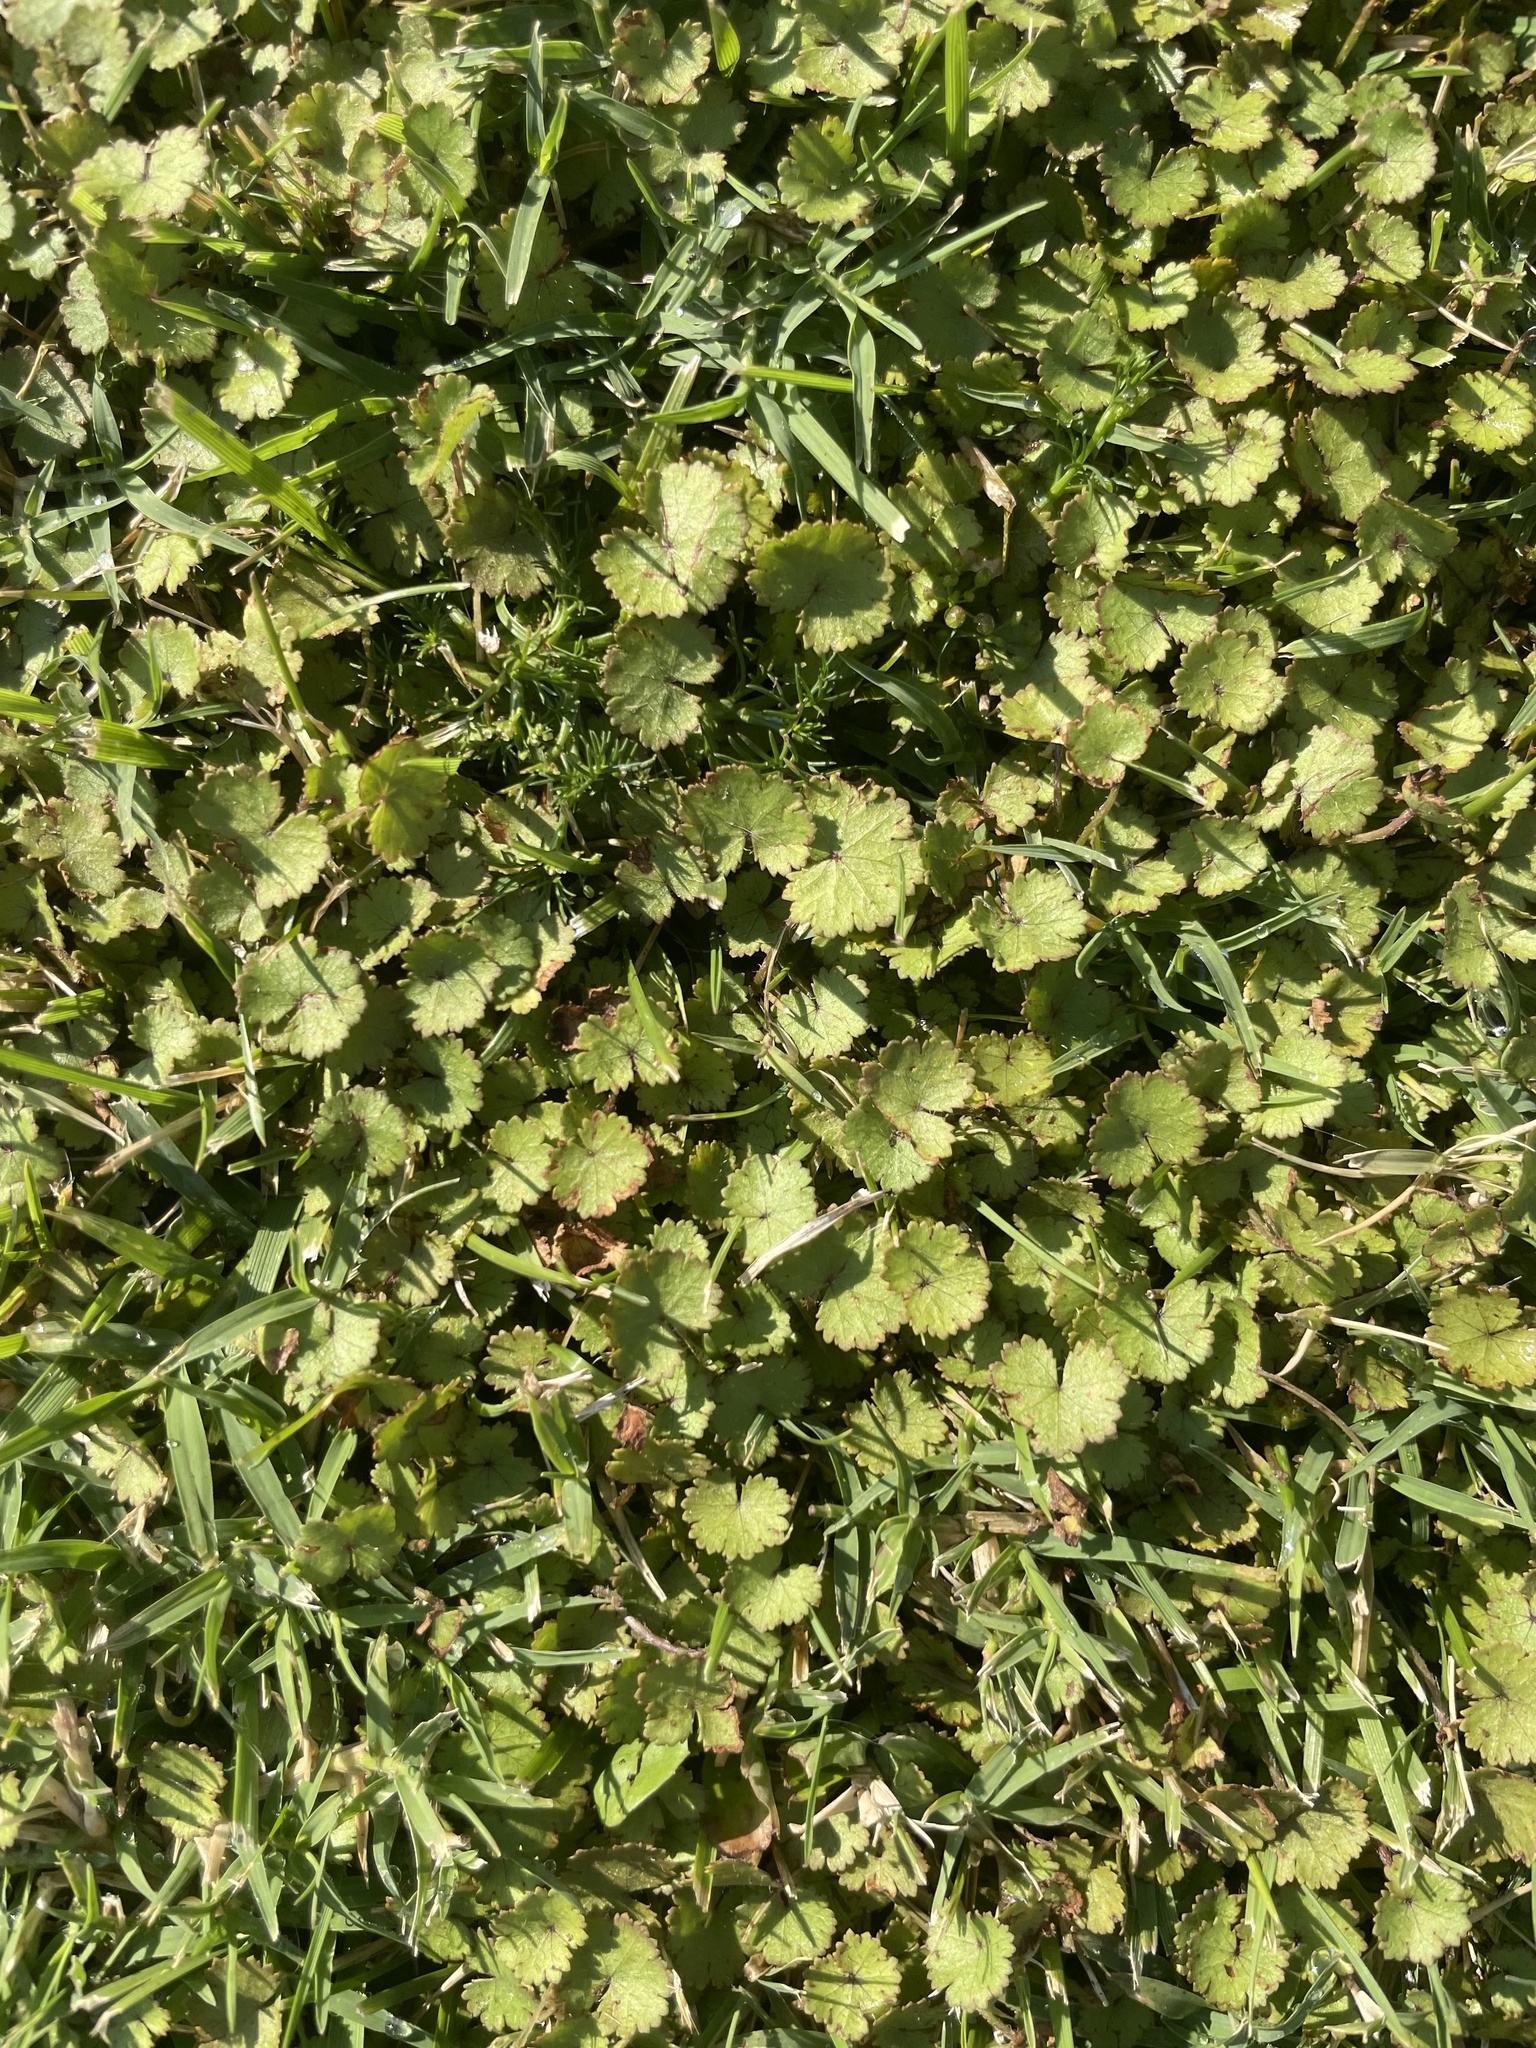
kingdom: Plantae
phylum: Tracheophyta
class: Magnoliopsida
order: Apiales
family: Araliaceae
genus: Hydrocotyle
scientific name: Hydrocotyle moschata
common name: Hairy pennywort
